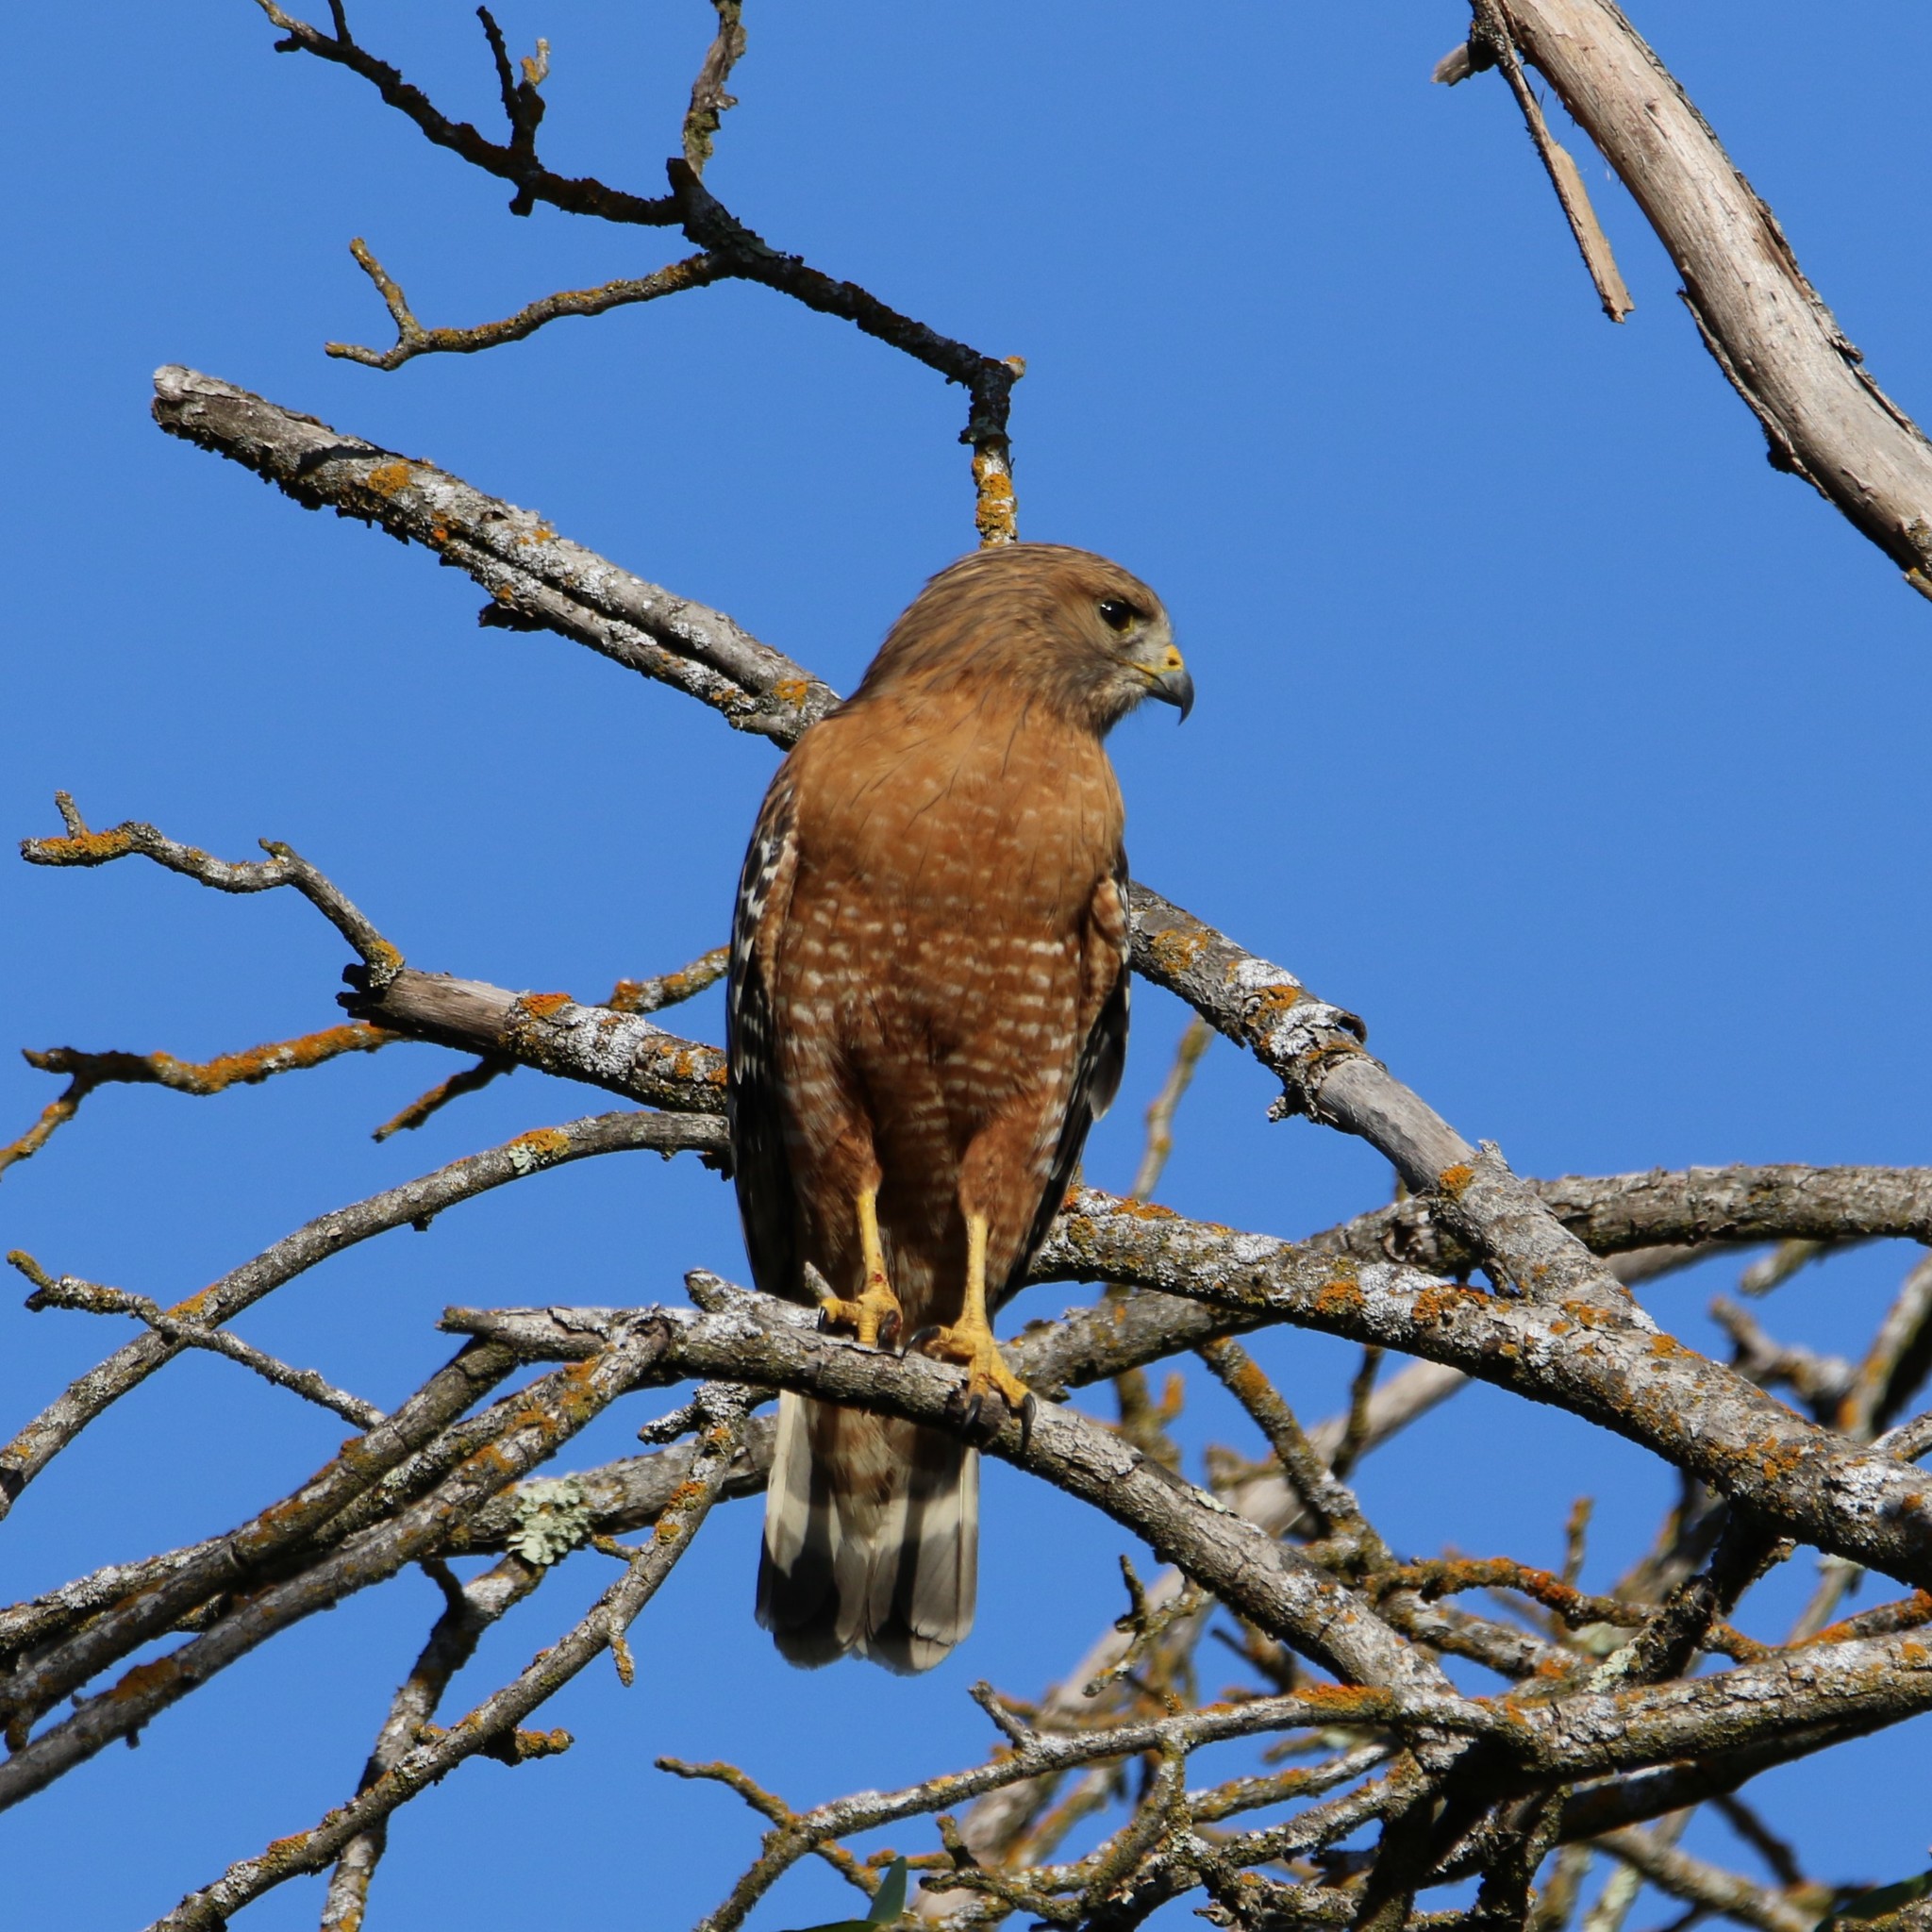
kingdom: Animalia
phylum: Chordata
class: Aves
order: Accipitriformes
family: Accipitridae
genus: Buteo
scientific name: Buteo lineatus
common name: Red-shouldered hawk
